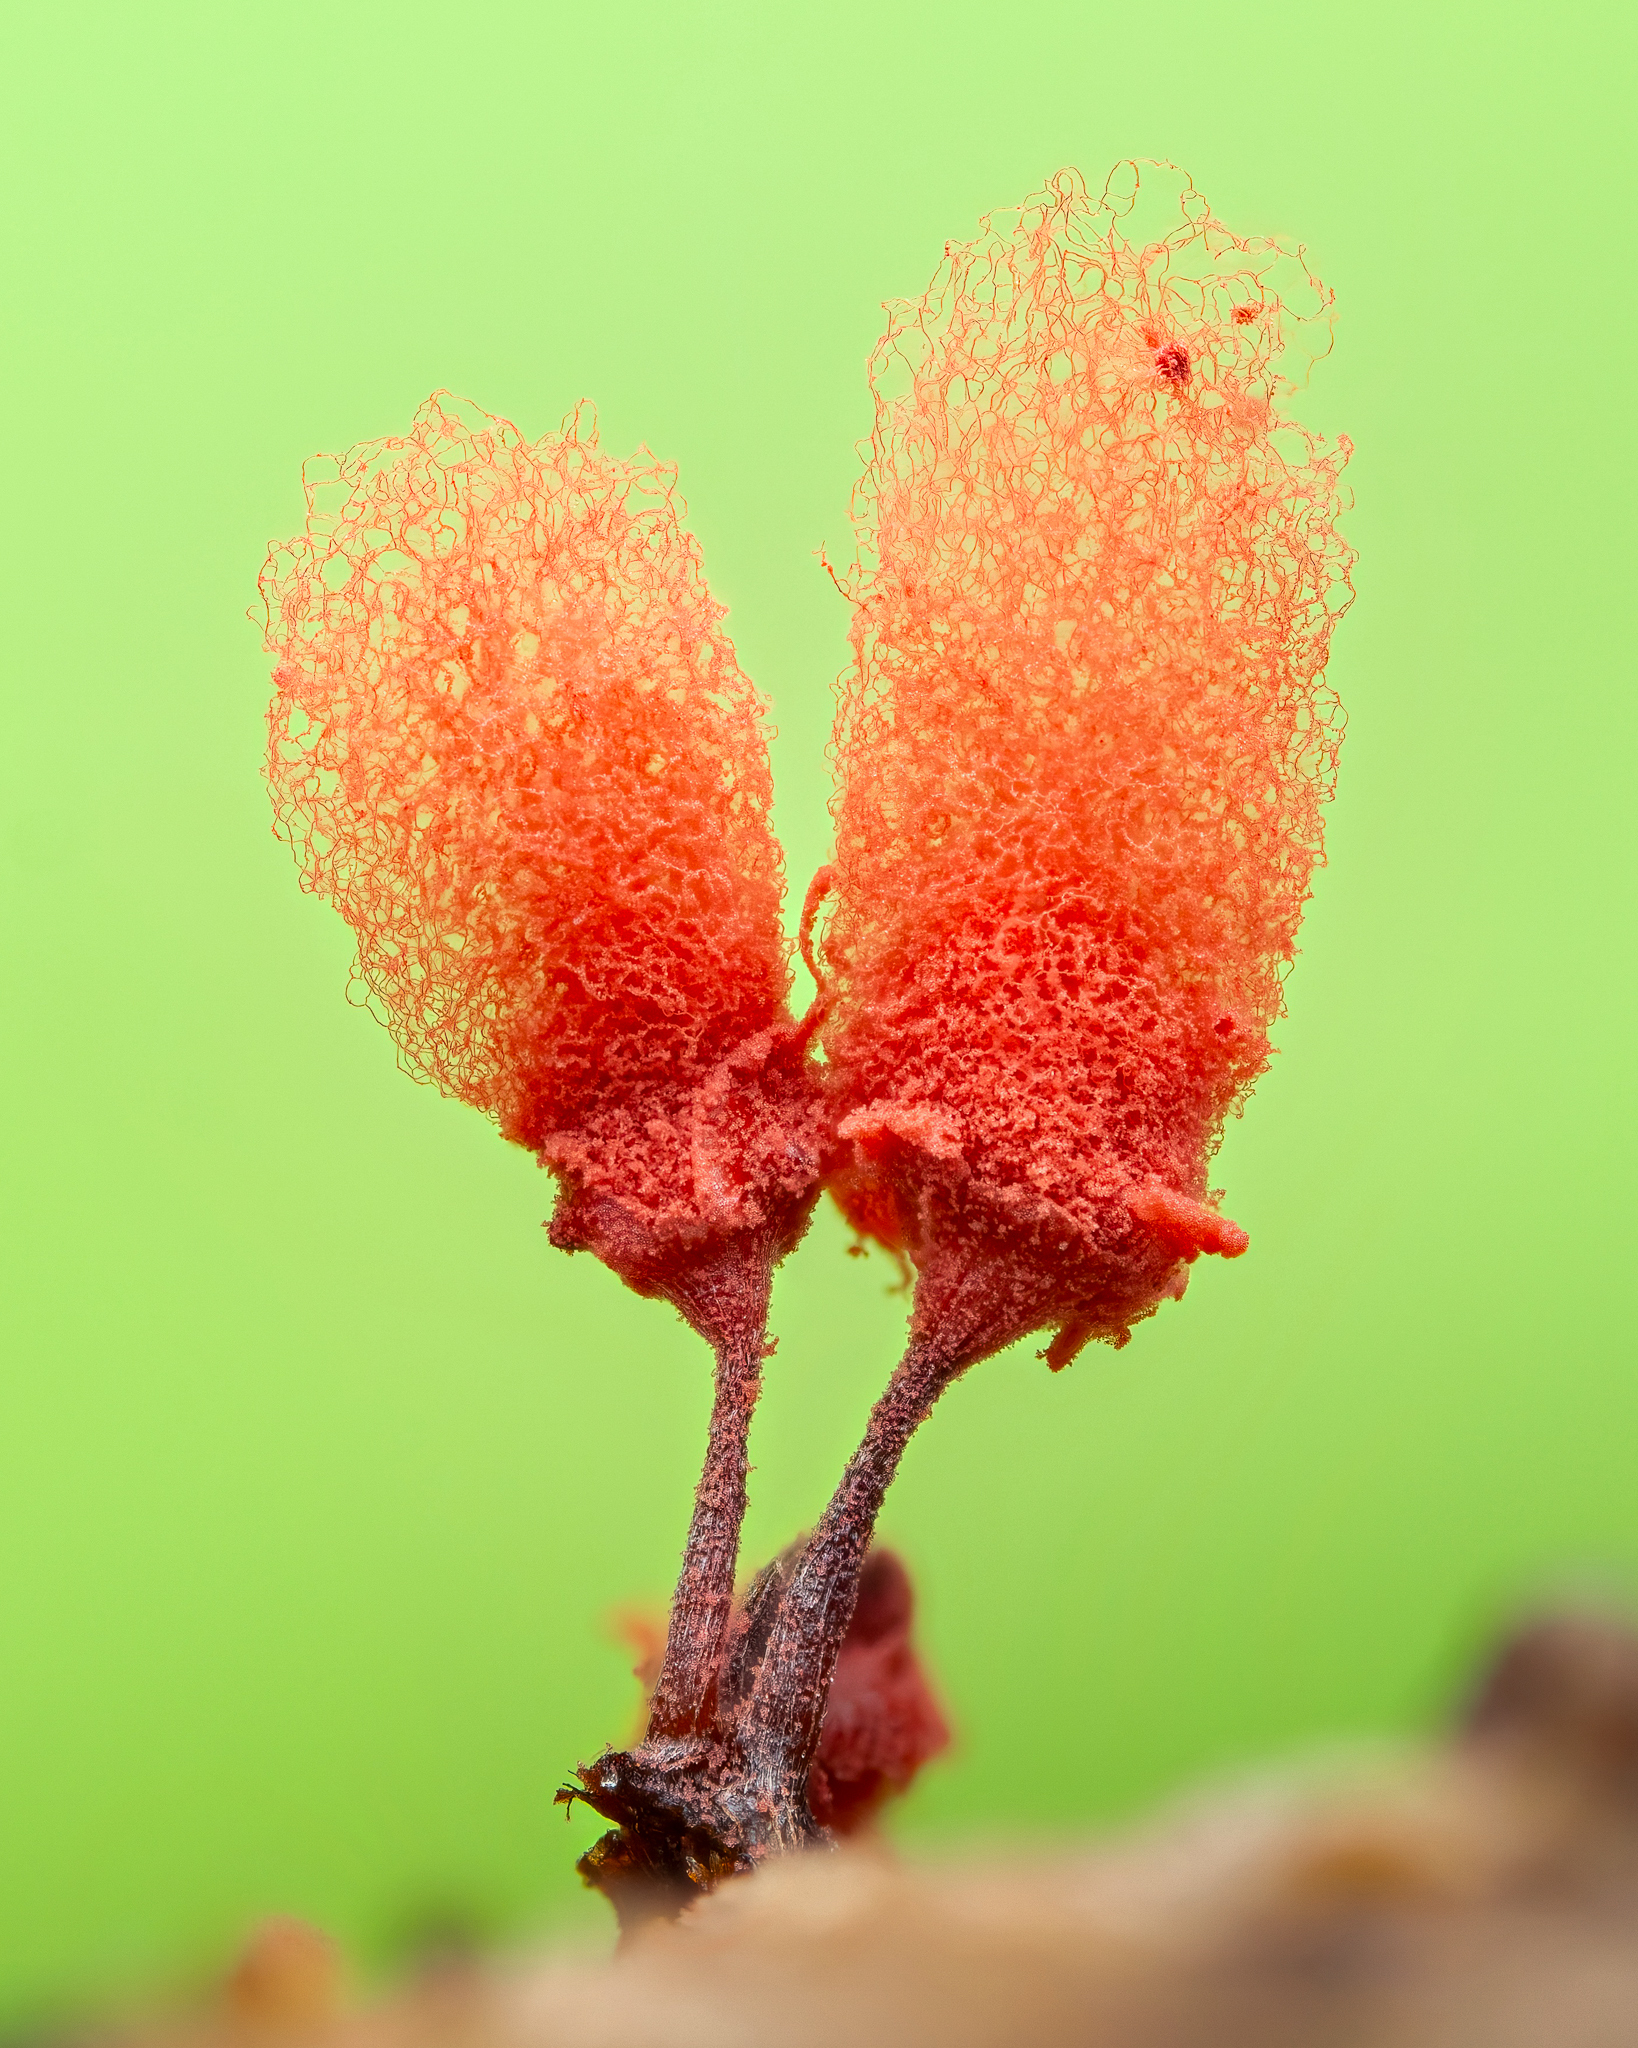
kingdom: Protozoa
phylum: Mycetozoa
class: Myxomycetes
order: Trichiales
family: Arcyriaceae
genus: Arcyria
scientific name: Arcyria denudata
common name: Carnival candy slime mold
